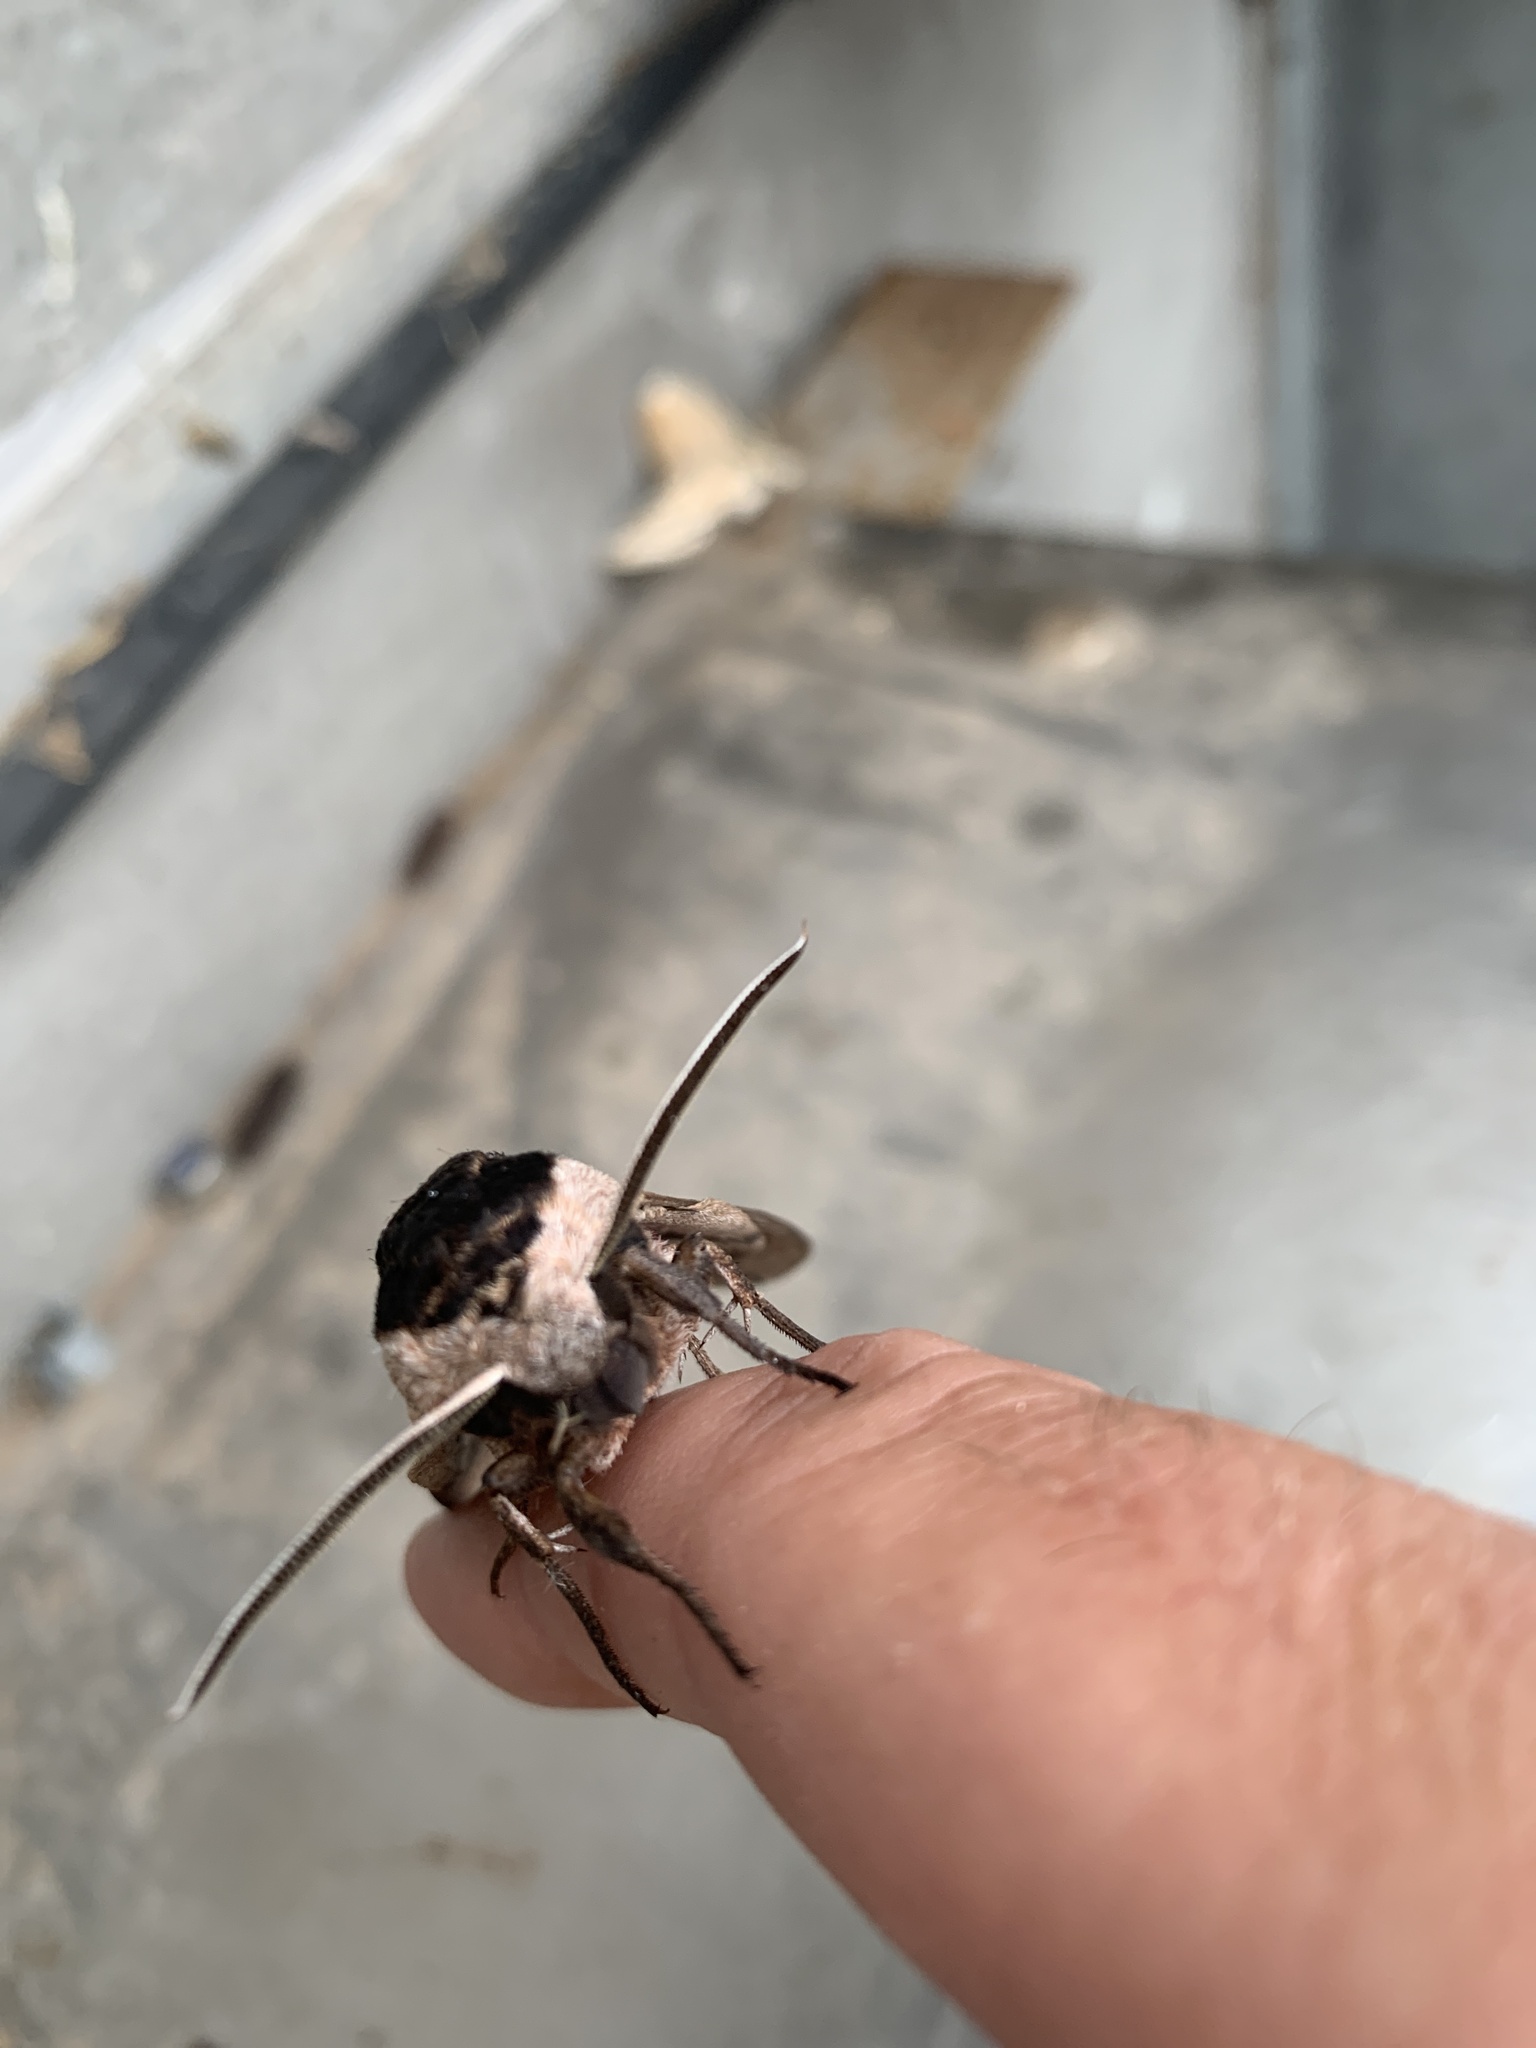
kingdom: Animalia
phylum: Arthropoda
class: Insecta
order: Lepidoptera
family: Sphingidae
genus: Sphinx
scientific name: Sphinx ligustri
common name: Privet hawk-moth
